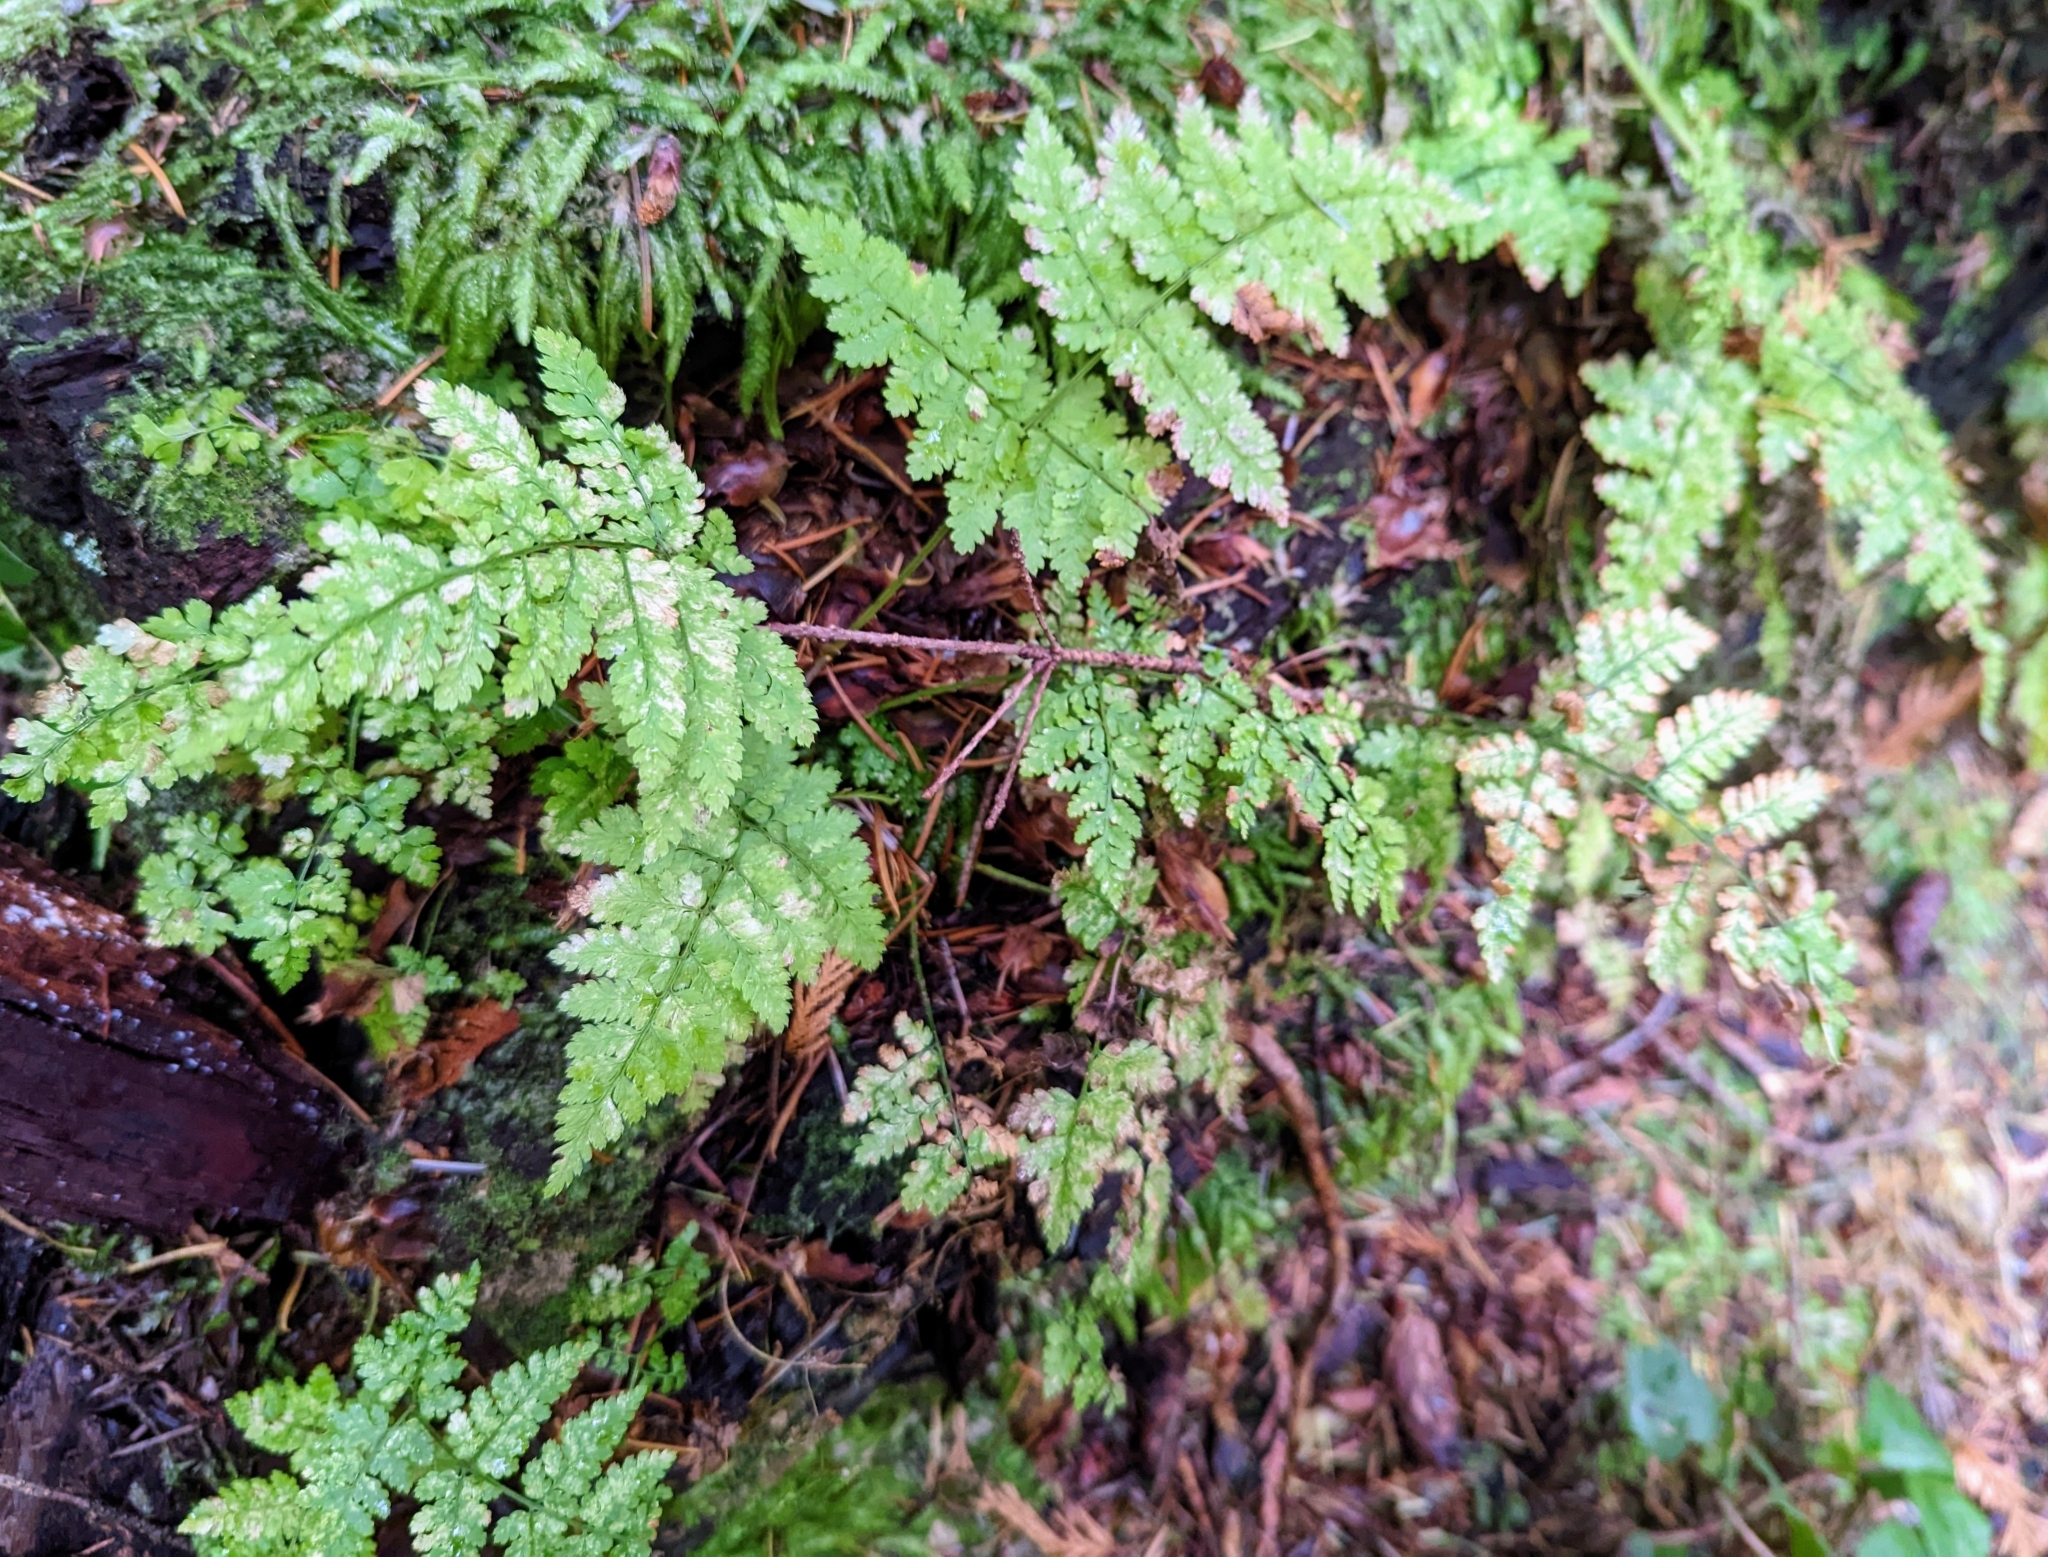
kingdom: Plantae
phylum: Tracheophyta
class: Polypodiopsida
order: Polypodiales
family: Dryopteridaceae
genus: Dryopteris
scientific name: Dryopteris expansa
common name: Northern buckler fern
